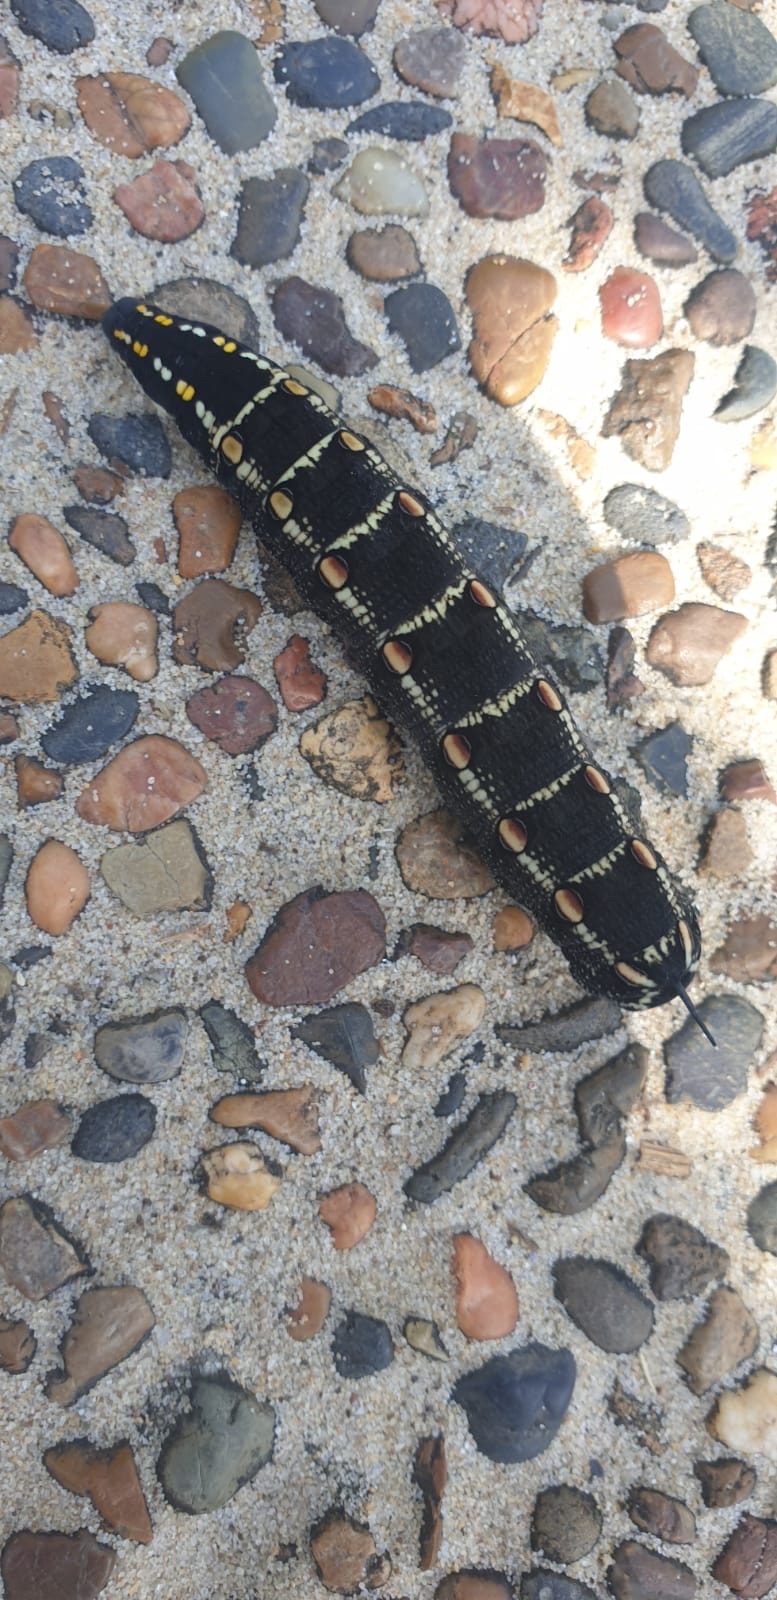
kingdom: Animalia
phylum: Arthropoda
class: Insecta
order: Lepidoptera
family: Sphingidae
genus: Theretra
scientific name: Theretra oldenlandiae
